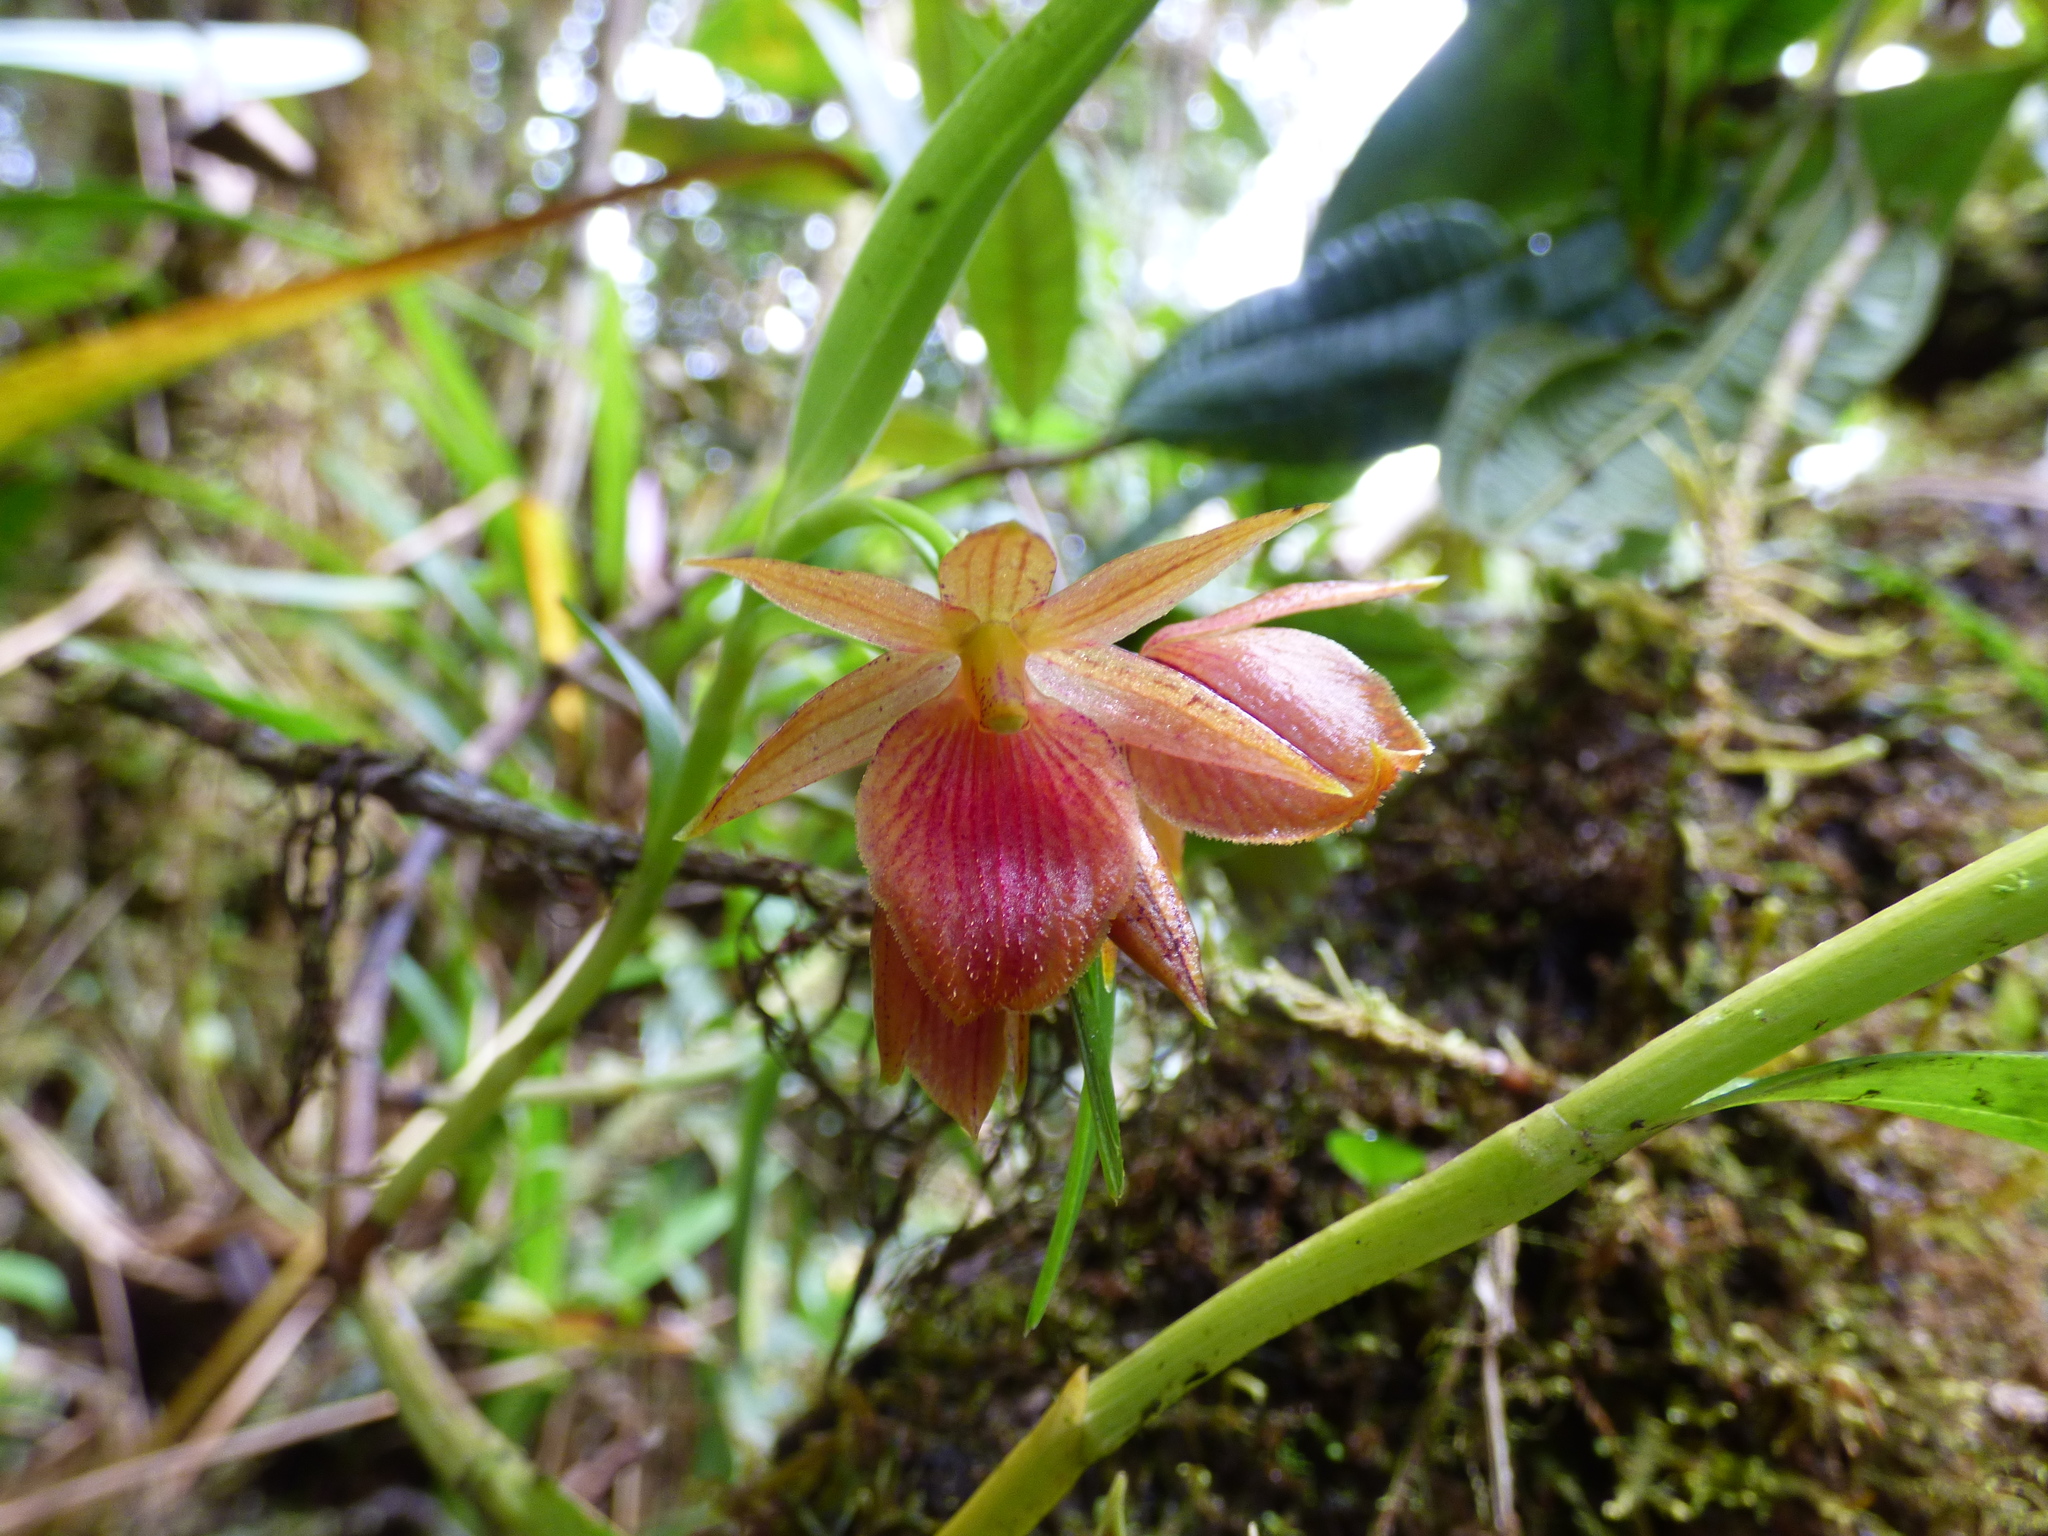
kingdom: Plantae
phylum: Tracheophyta
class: Liliopsida
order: Asparagales
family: Orchidaceae
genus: Epidendrum
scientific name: Epidendrum arevaloi
